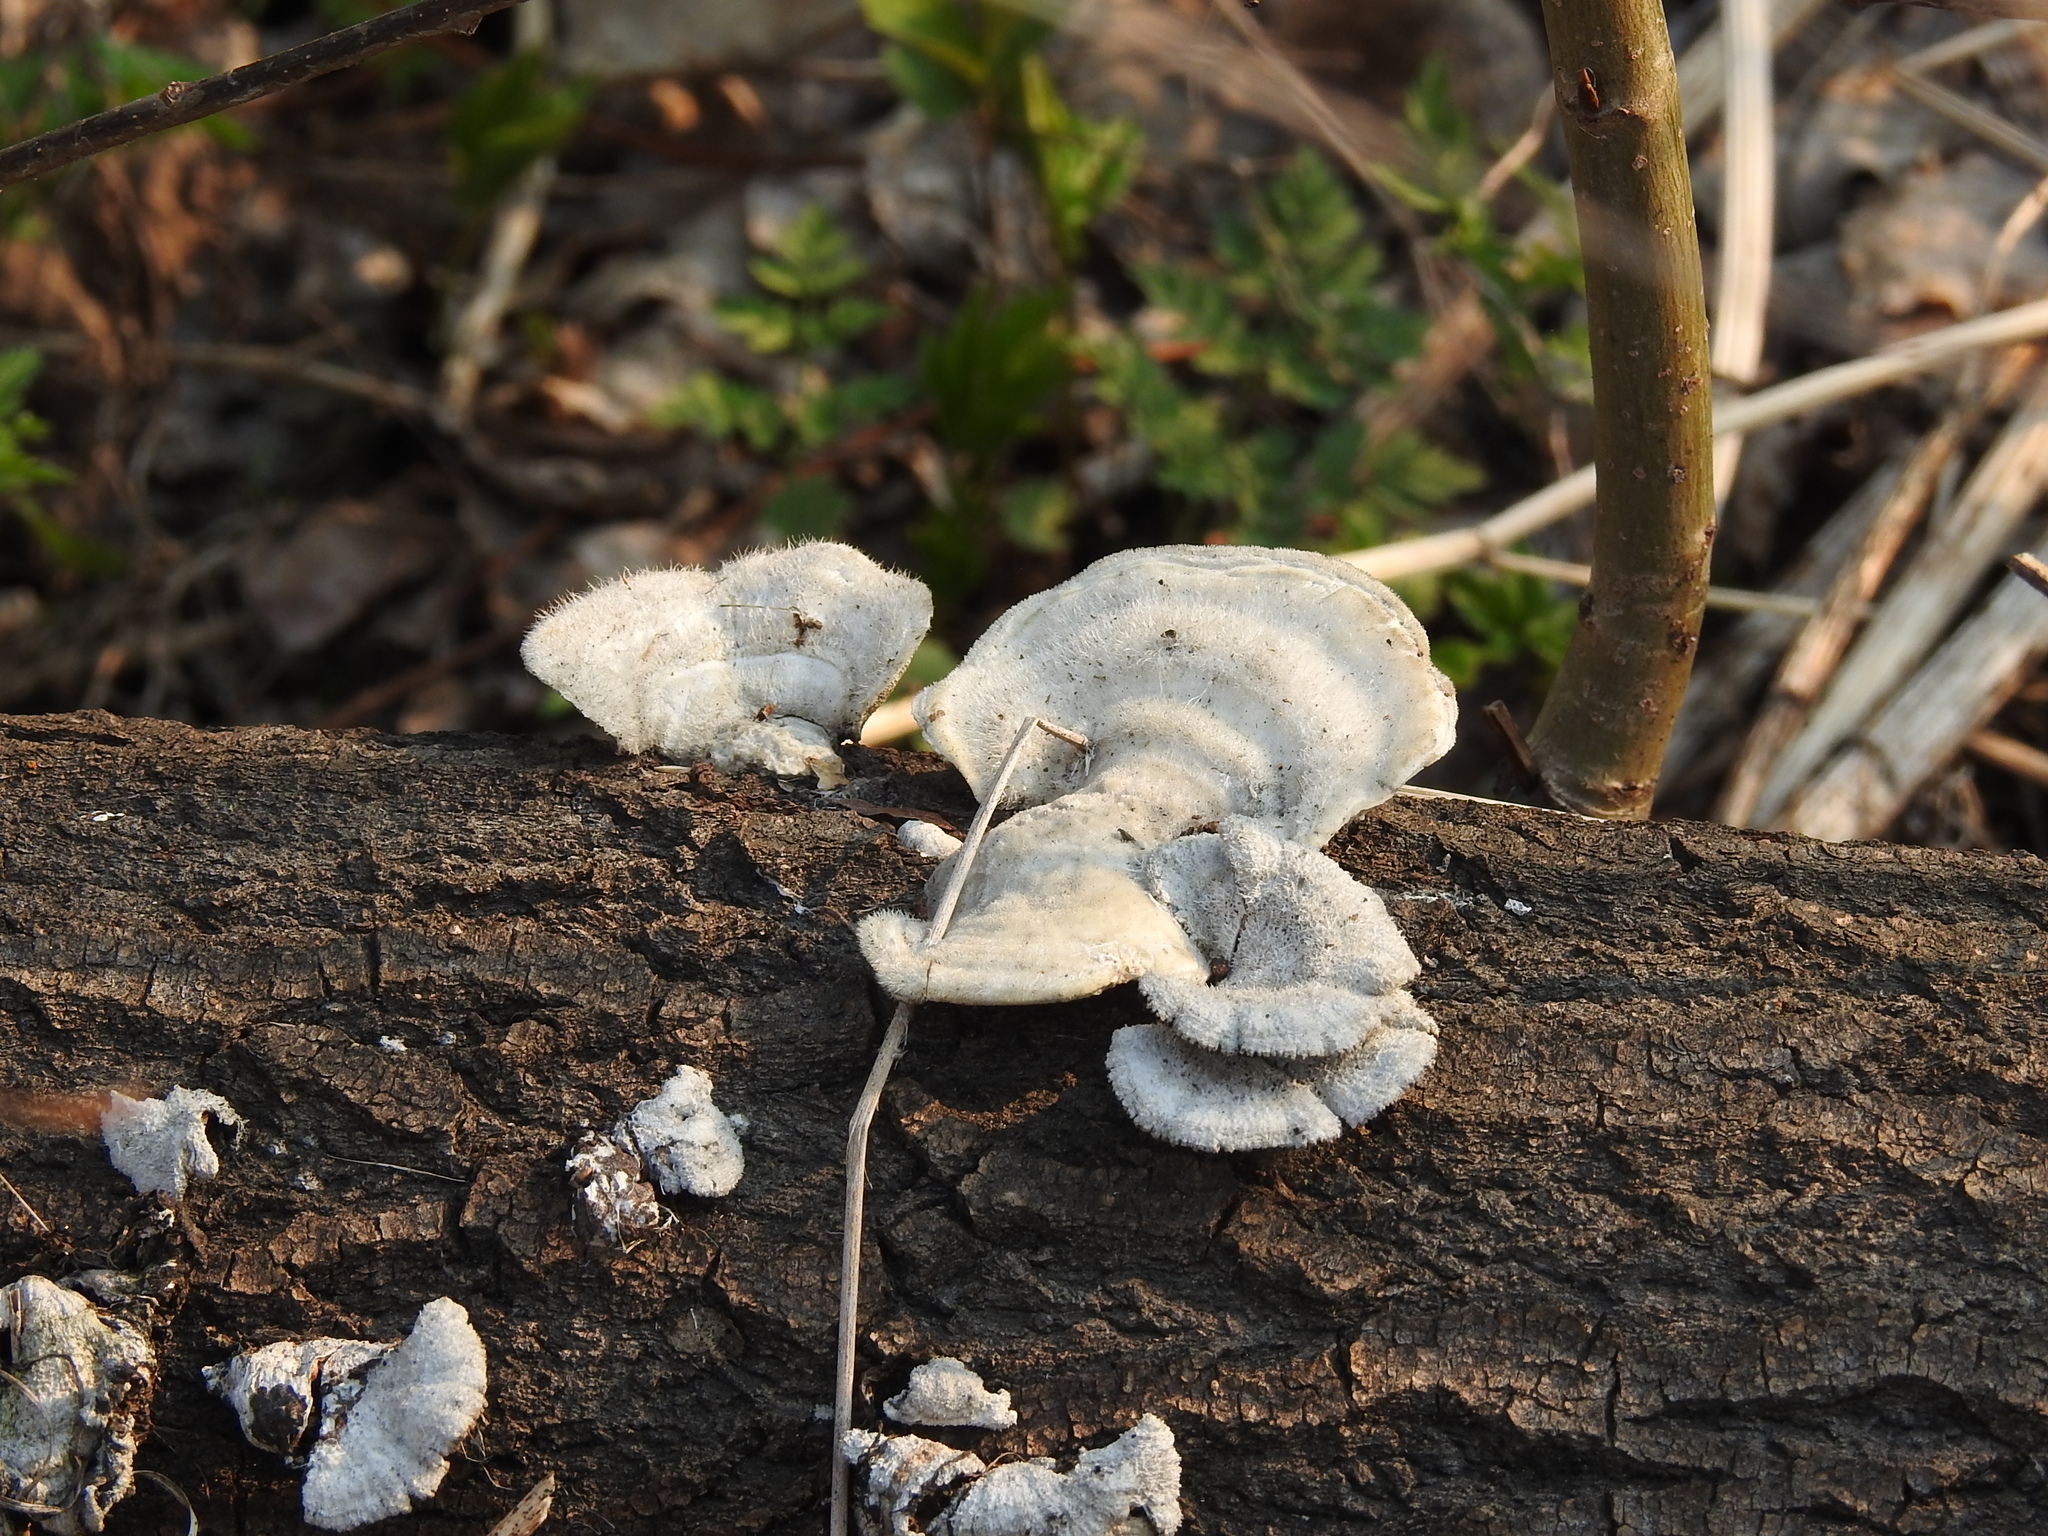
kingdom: Fungi
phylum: Basidiomycota
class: Agaricomycetes
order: Polyporales
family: Polyporaceae
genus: Trametes
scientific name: Trametes hirsuta
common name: Hairy bracket
